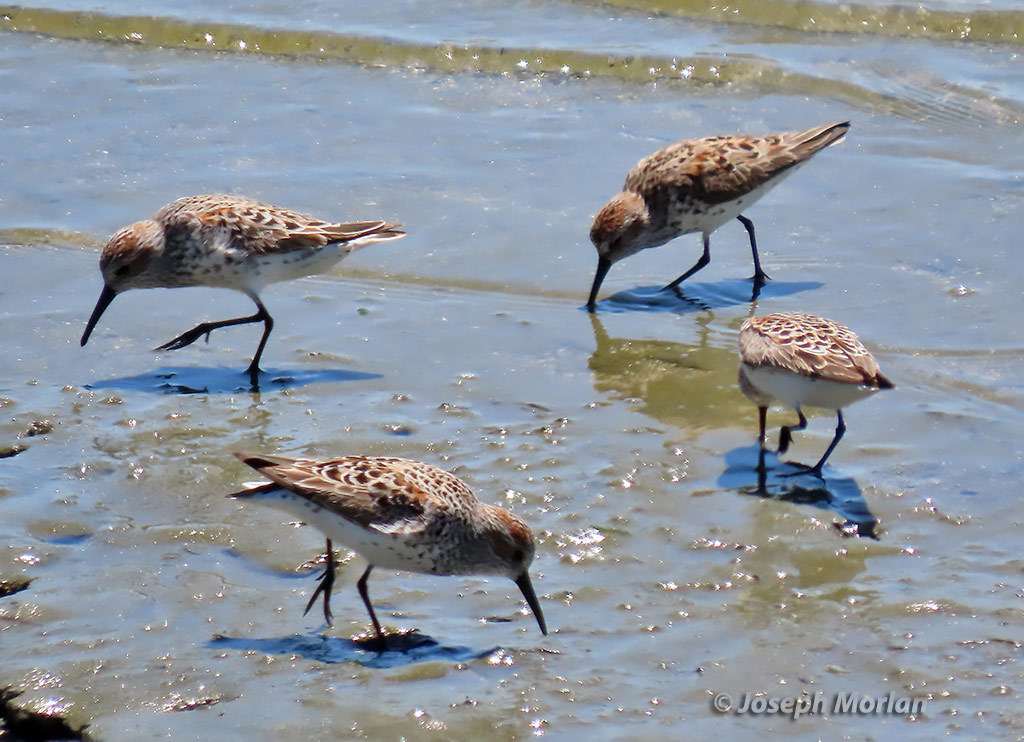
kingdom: Animalia
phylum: Chordata
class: Aves
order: Charadriiformes
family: Scolopacidae
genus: Calidris
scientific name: Calidris mauri
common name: Western sandpiper
